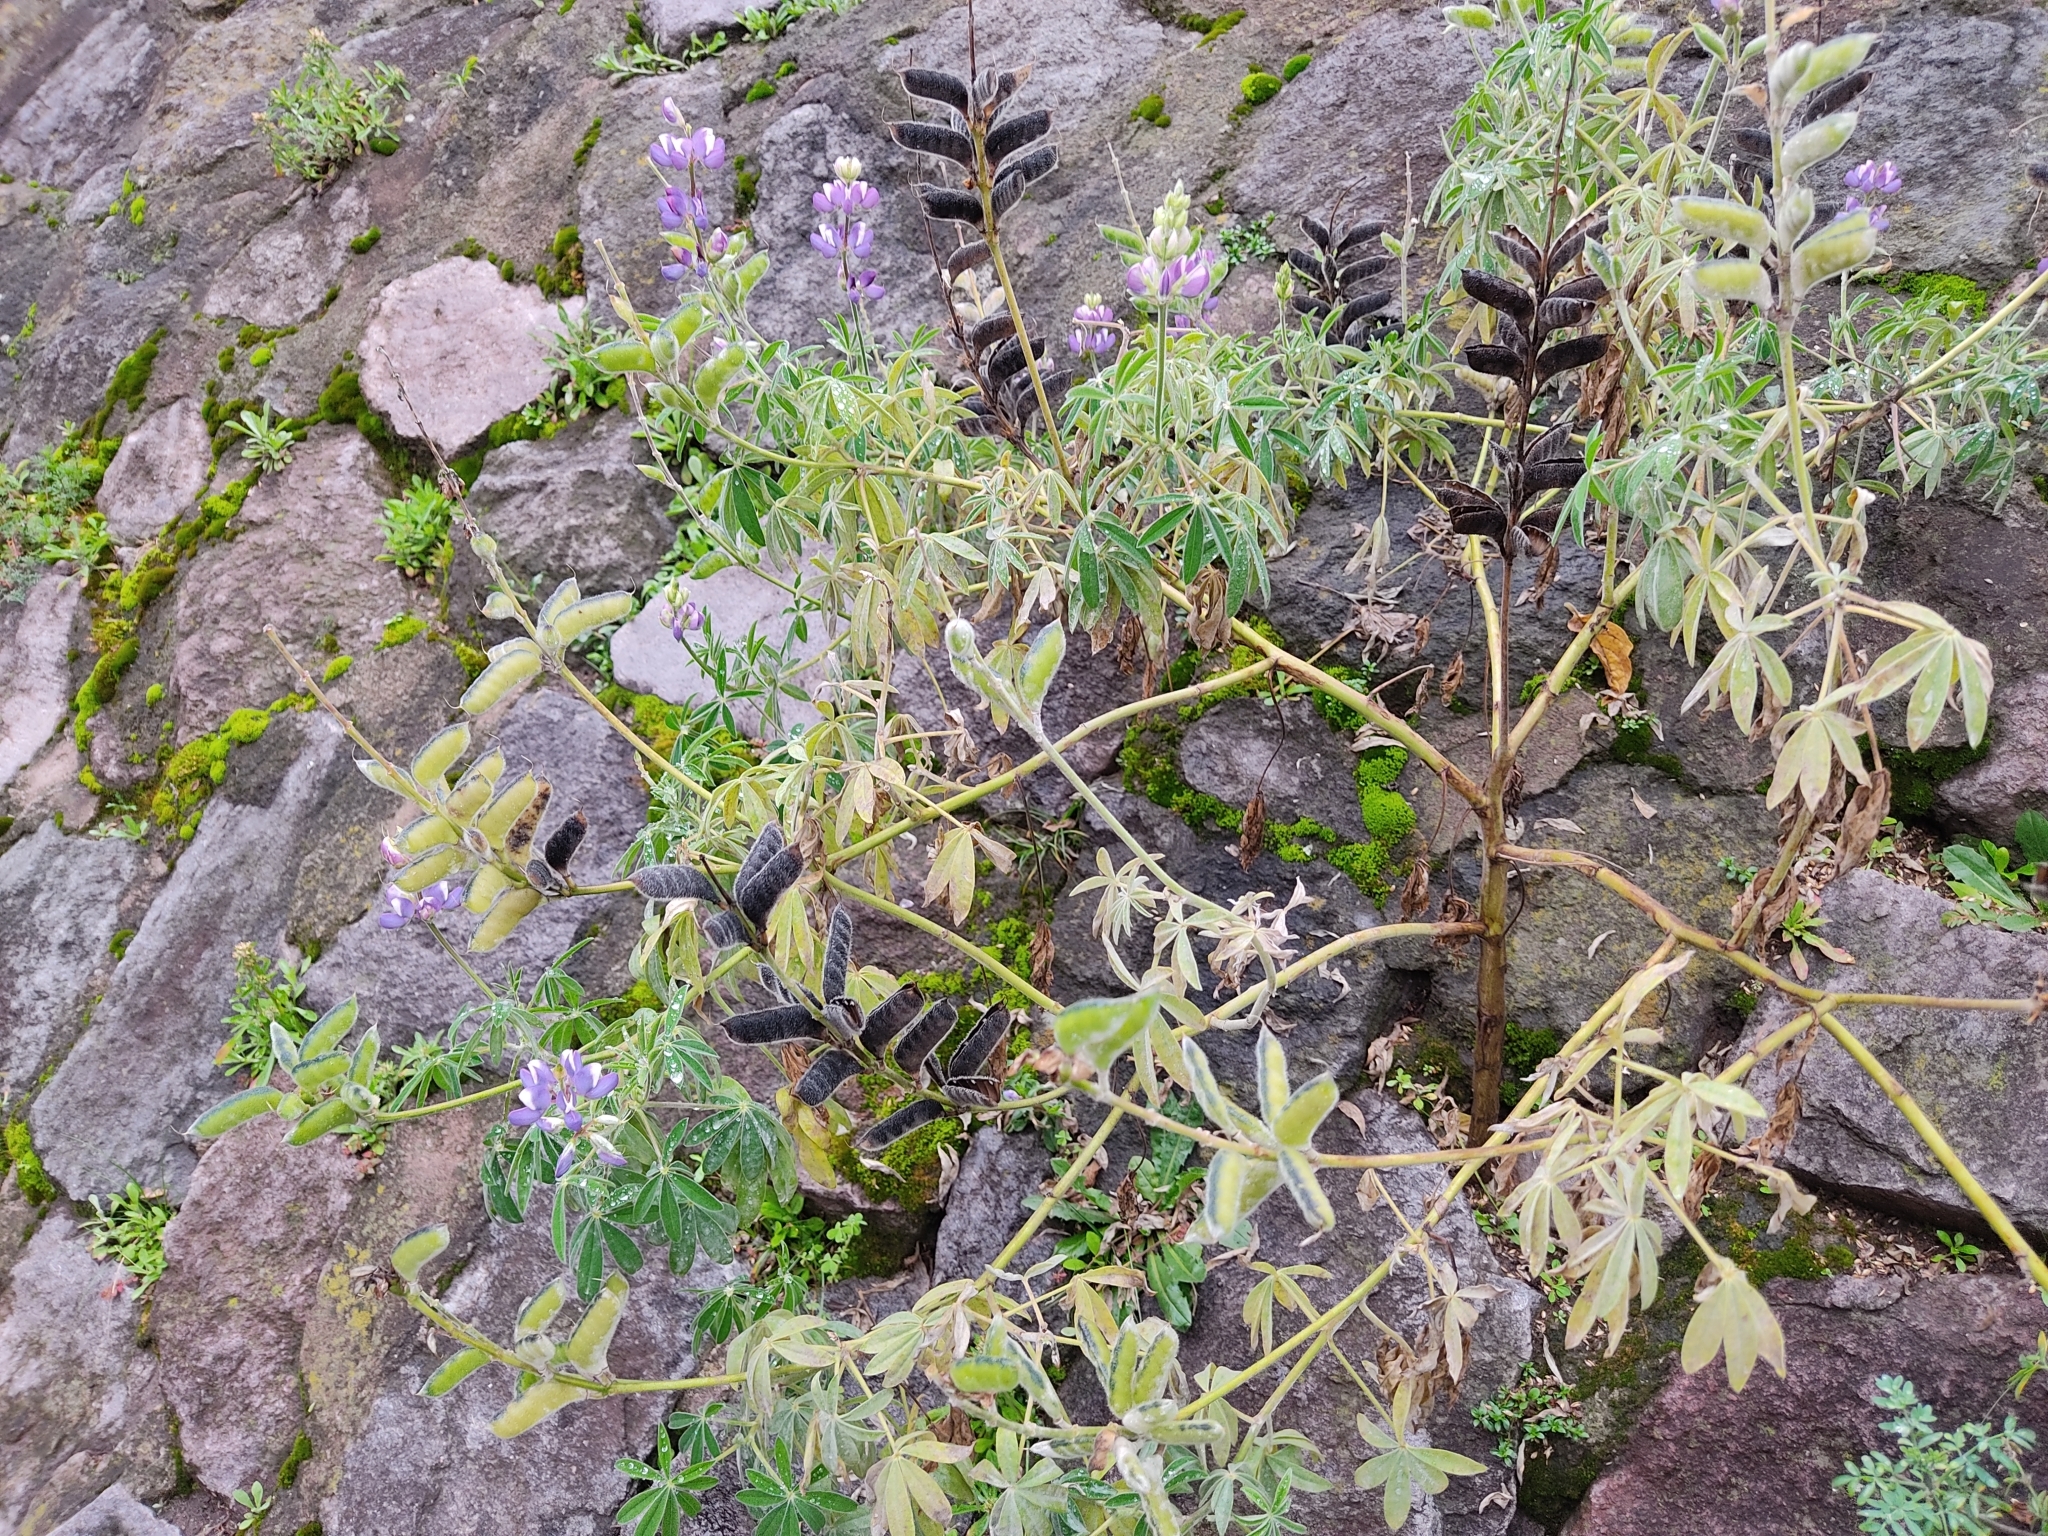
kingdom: Plantae
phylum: Tracheophyta
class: Magnoliopsida
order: Fabales
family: Fabaceae
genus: Lupinus
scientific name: Lupinus pubescens
